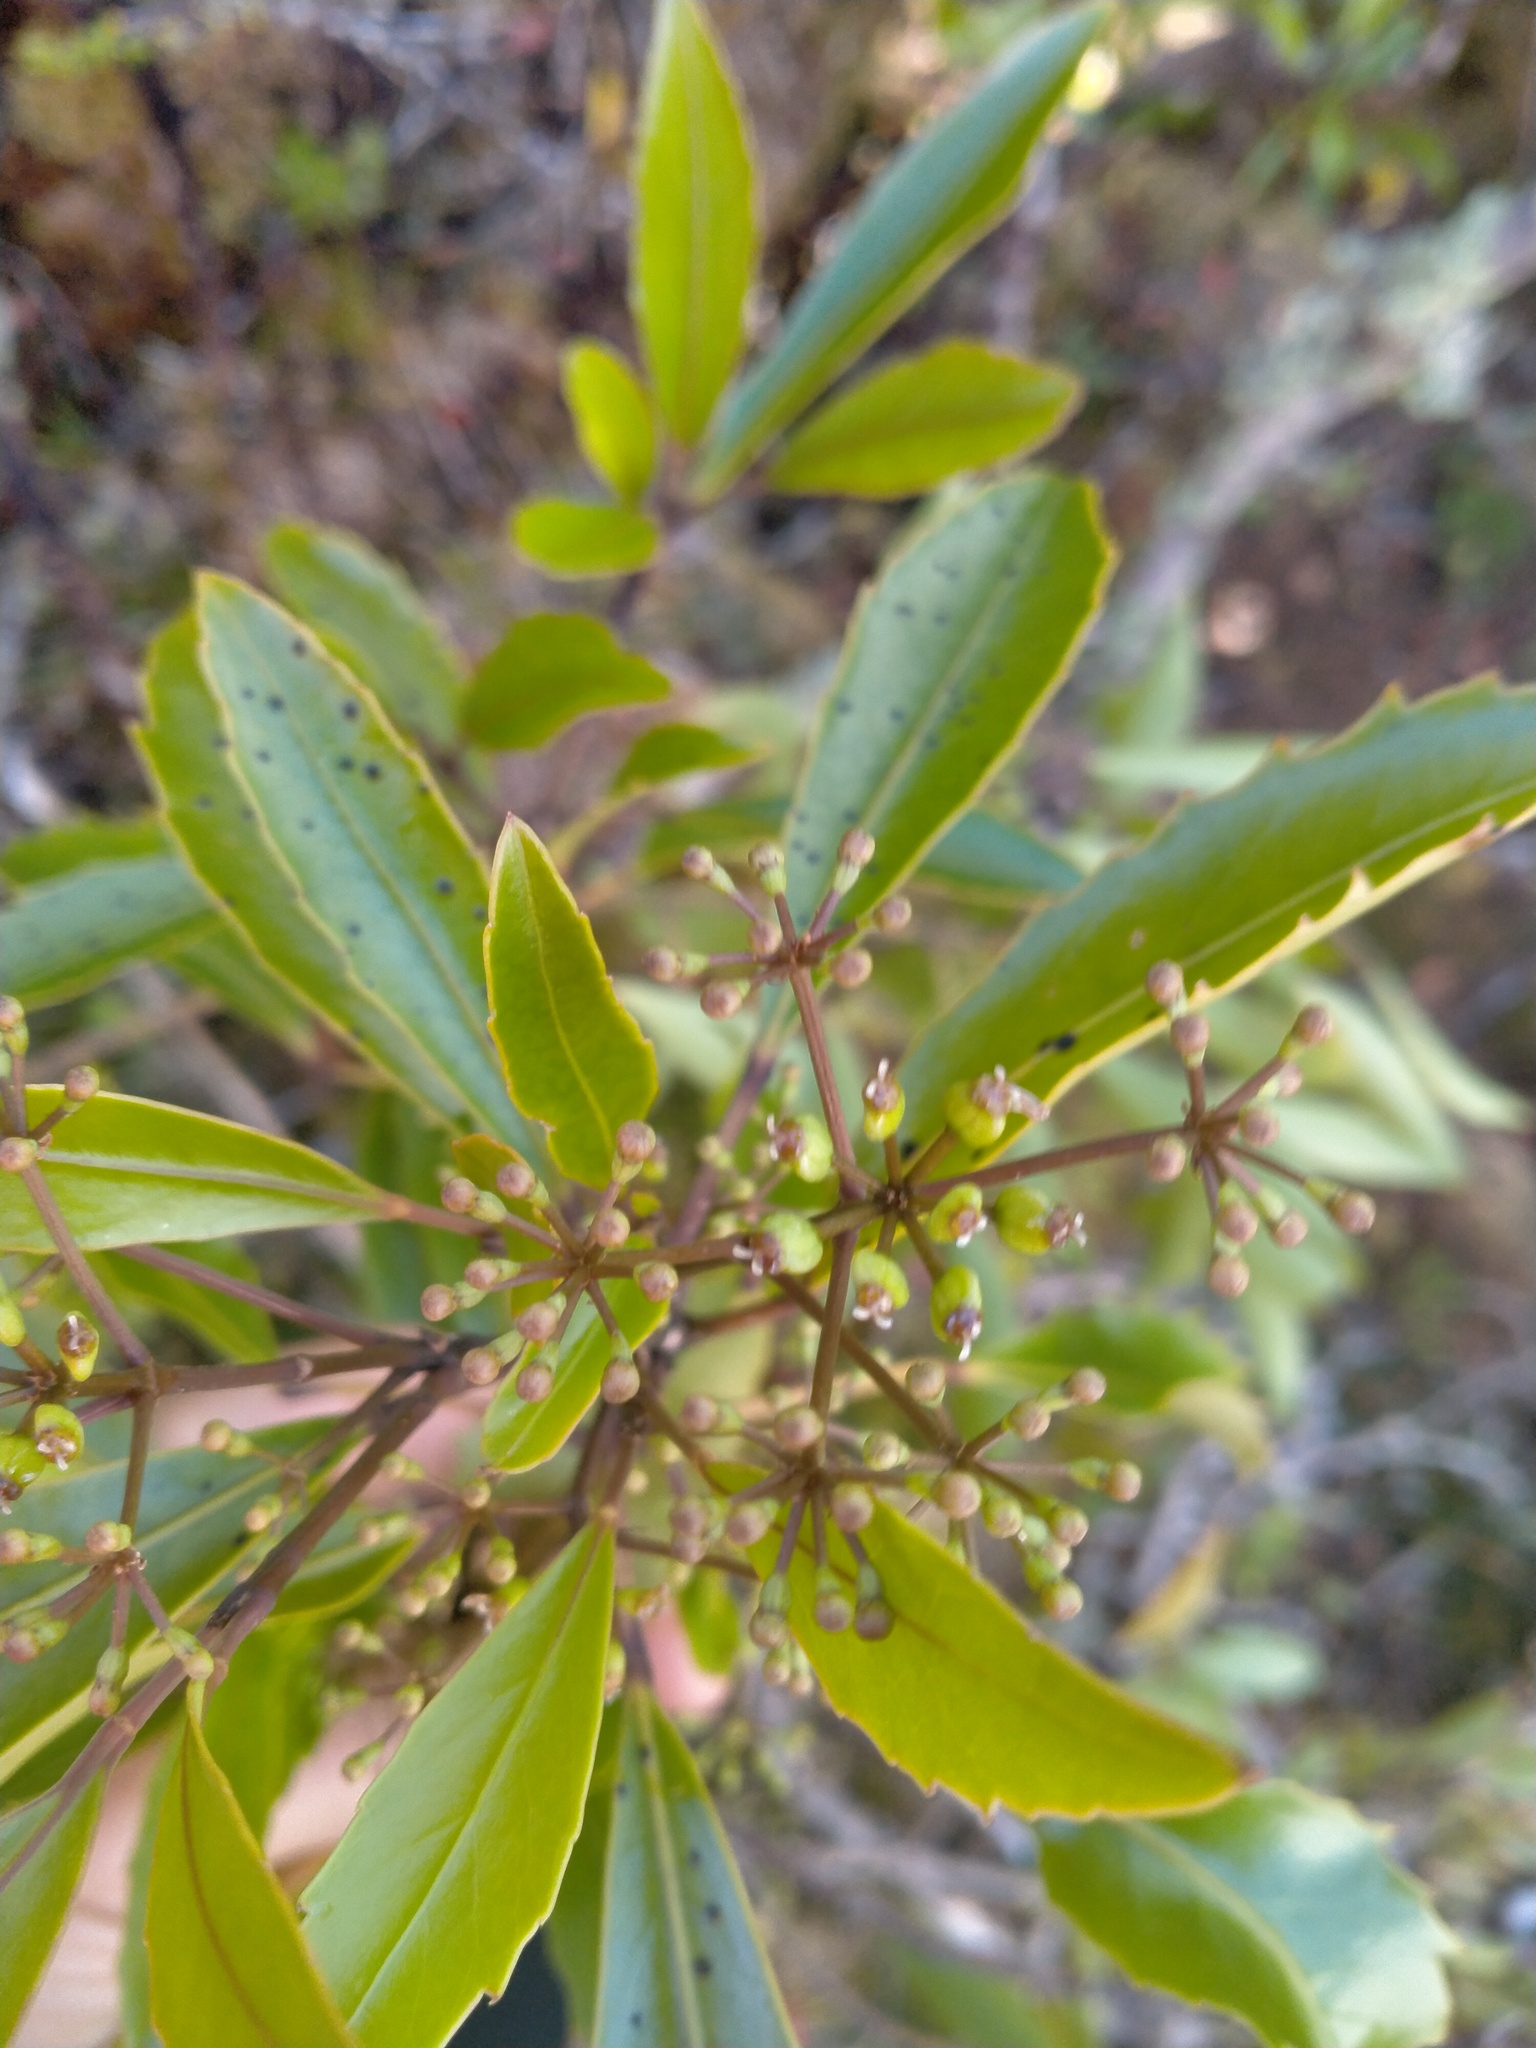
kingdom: Plantae
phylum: Tracheophyta
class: Magnoliopsida
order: Apiales
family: Araliaceae
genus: Raukaua
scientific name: Raukaua simplex
